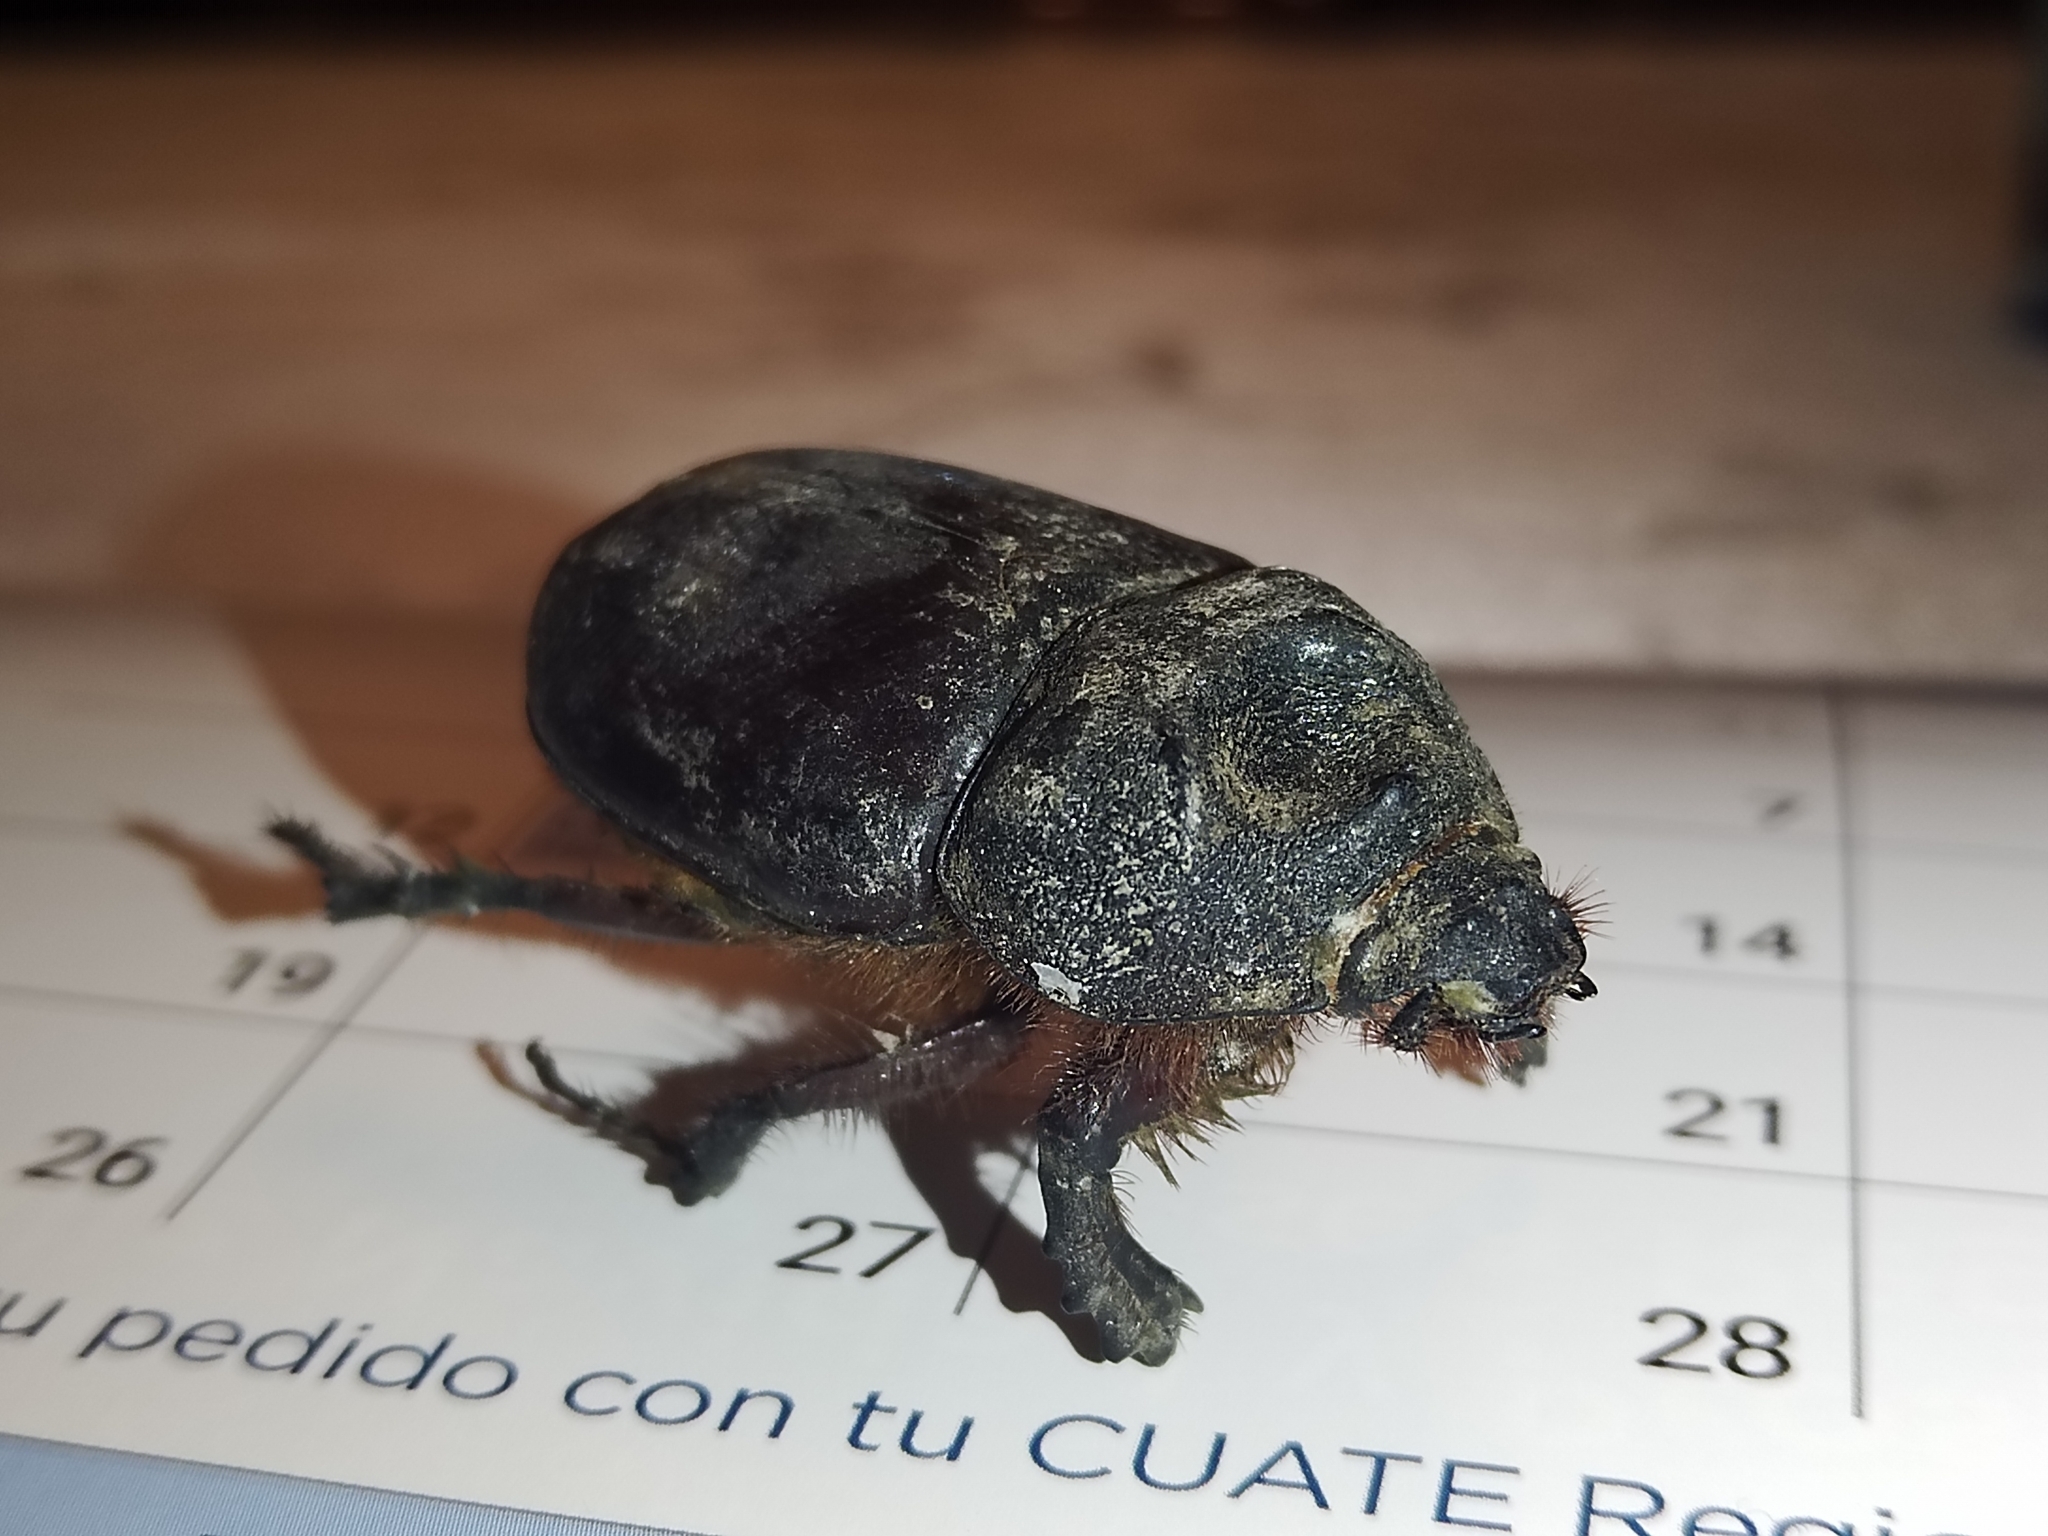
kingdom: Animalia
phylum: Arthropoda
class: Insecta
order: Coleoptera
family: Scarabaeidae
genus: Strategus
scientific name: Strategus aloeus
